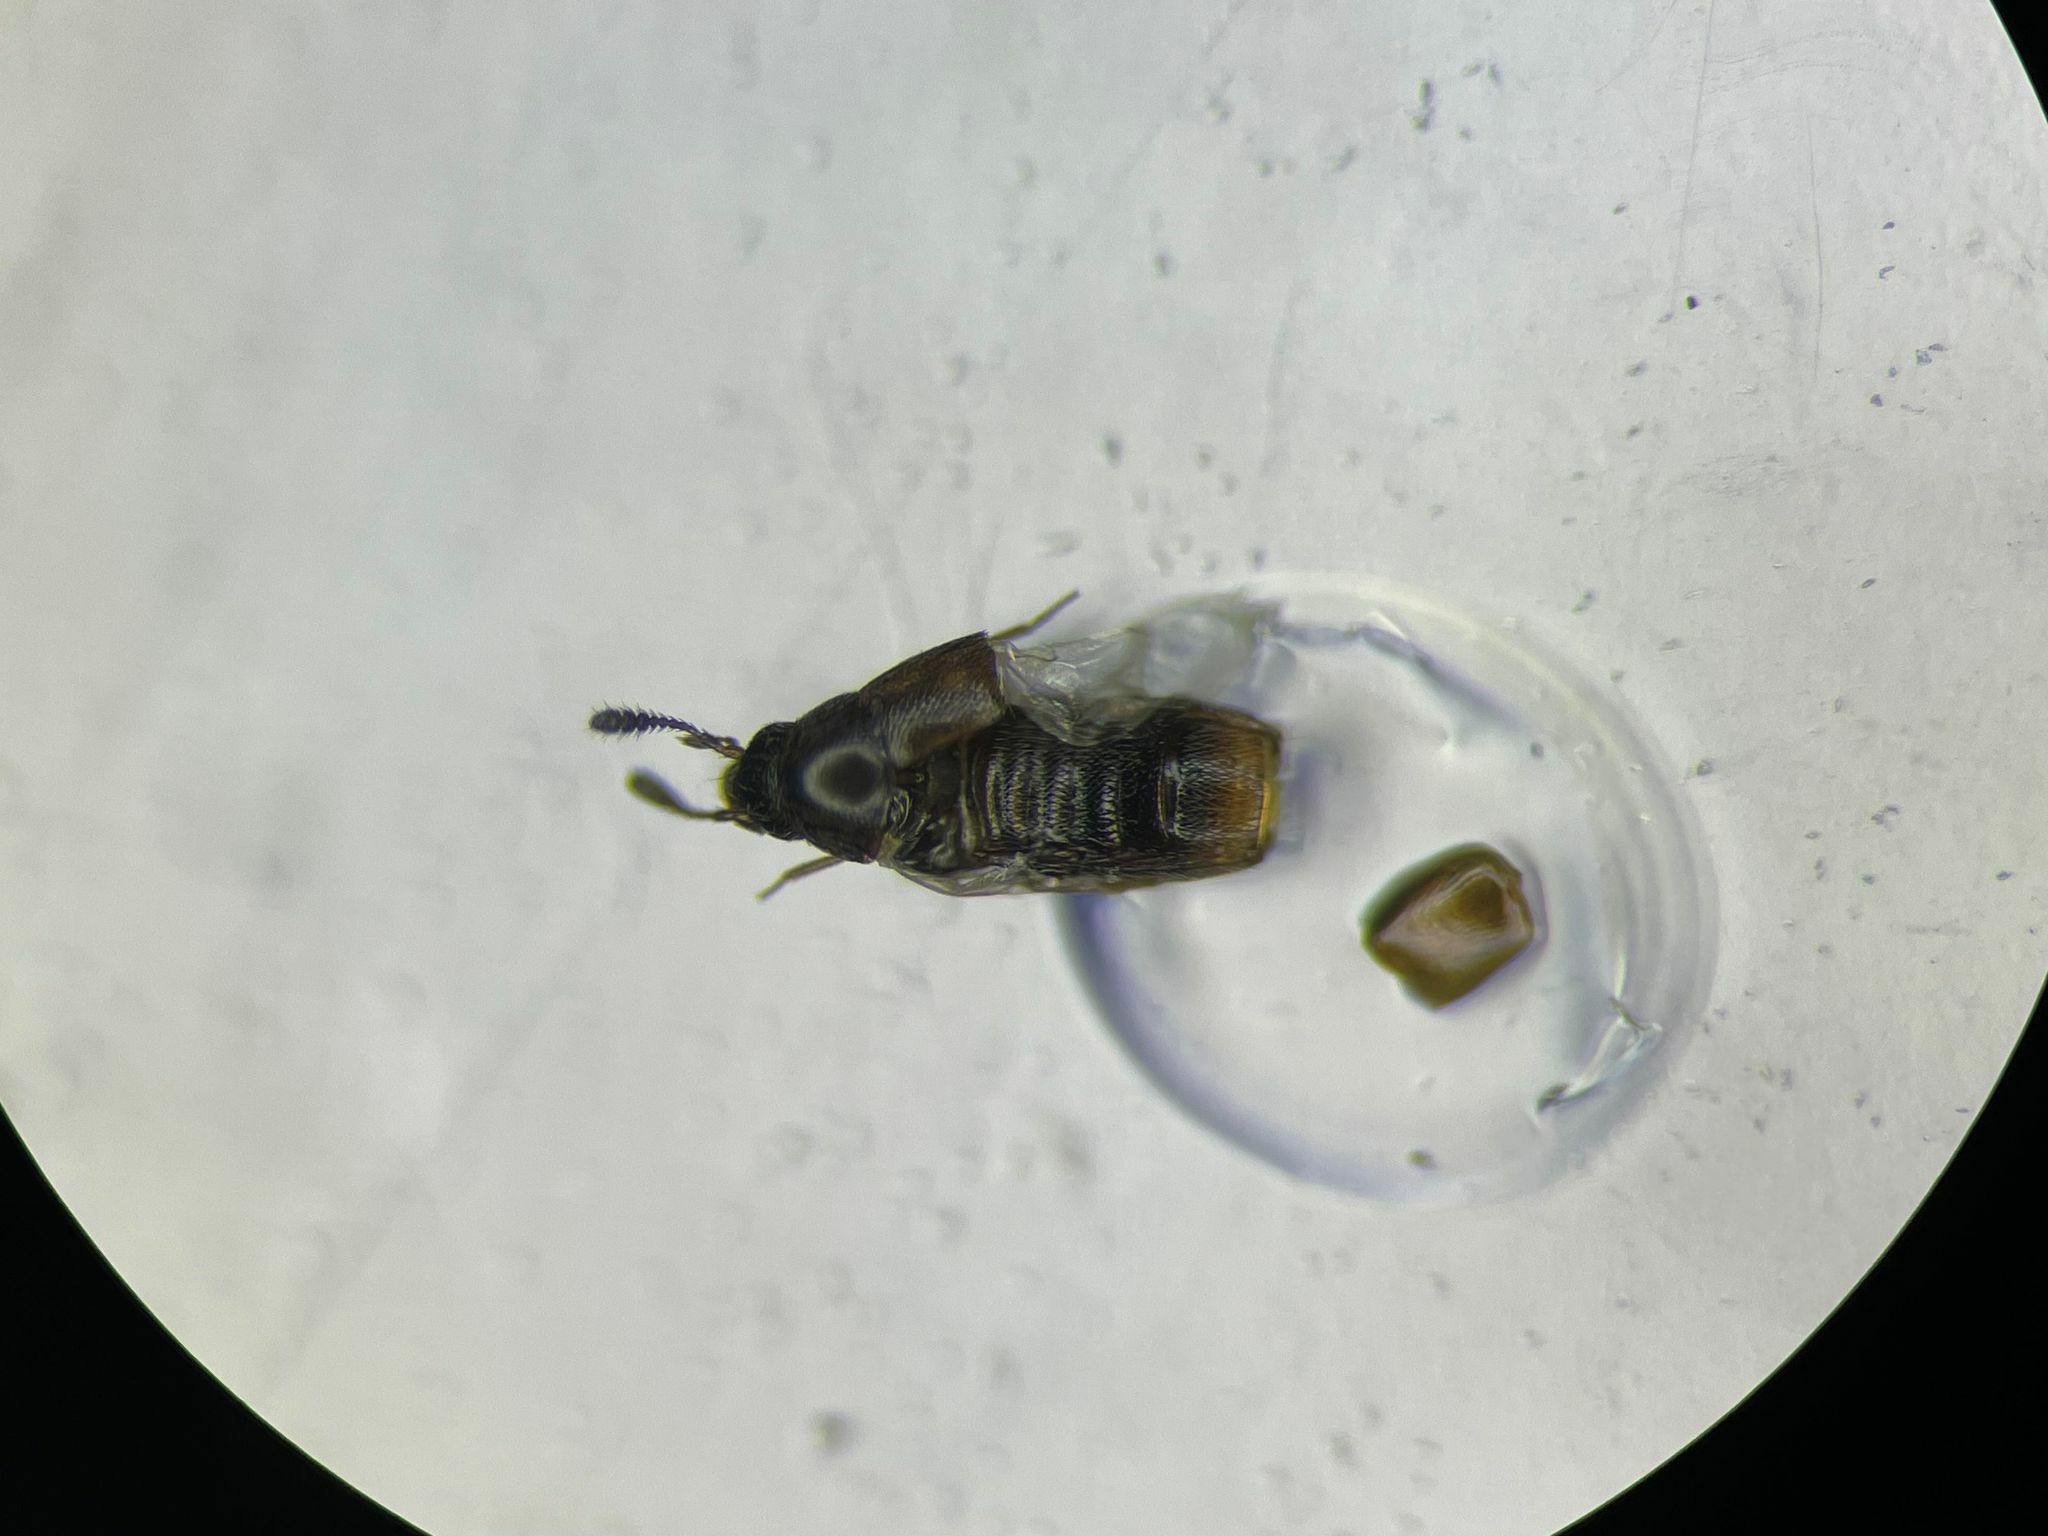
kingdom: Animalia
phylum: Arthropoda
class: Insecta
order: Coleoptera
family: Staphylinidae
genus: Oligota
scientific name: Oligota parva
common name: Rove beetle
